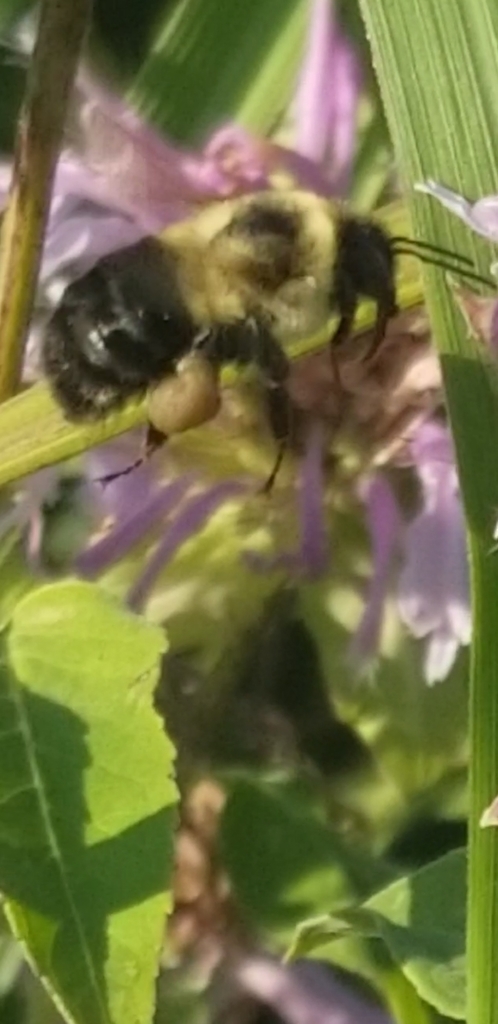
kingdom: Animalia
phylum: Arthropoda
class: Insecta
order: Hymenoptera
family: Apidae
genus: Bombus
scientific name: Bombus impatiens
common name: Common eastern bumble bee
